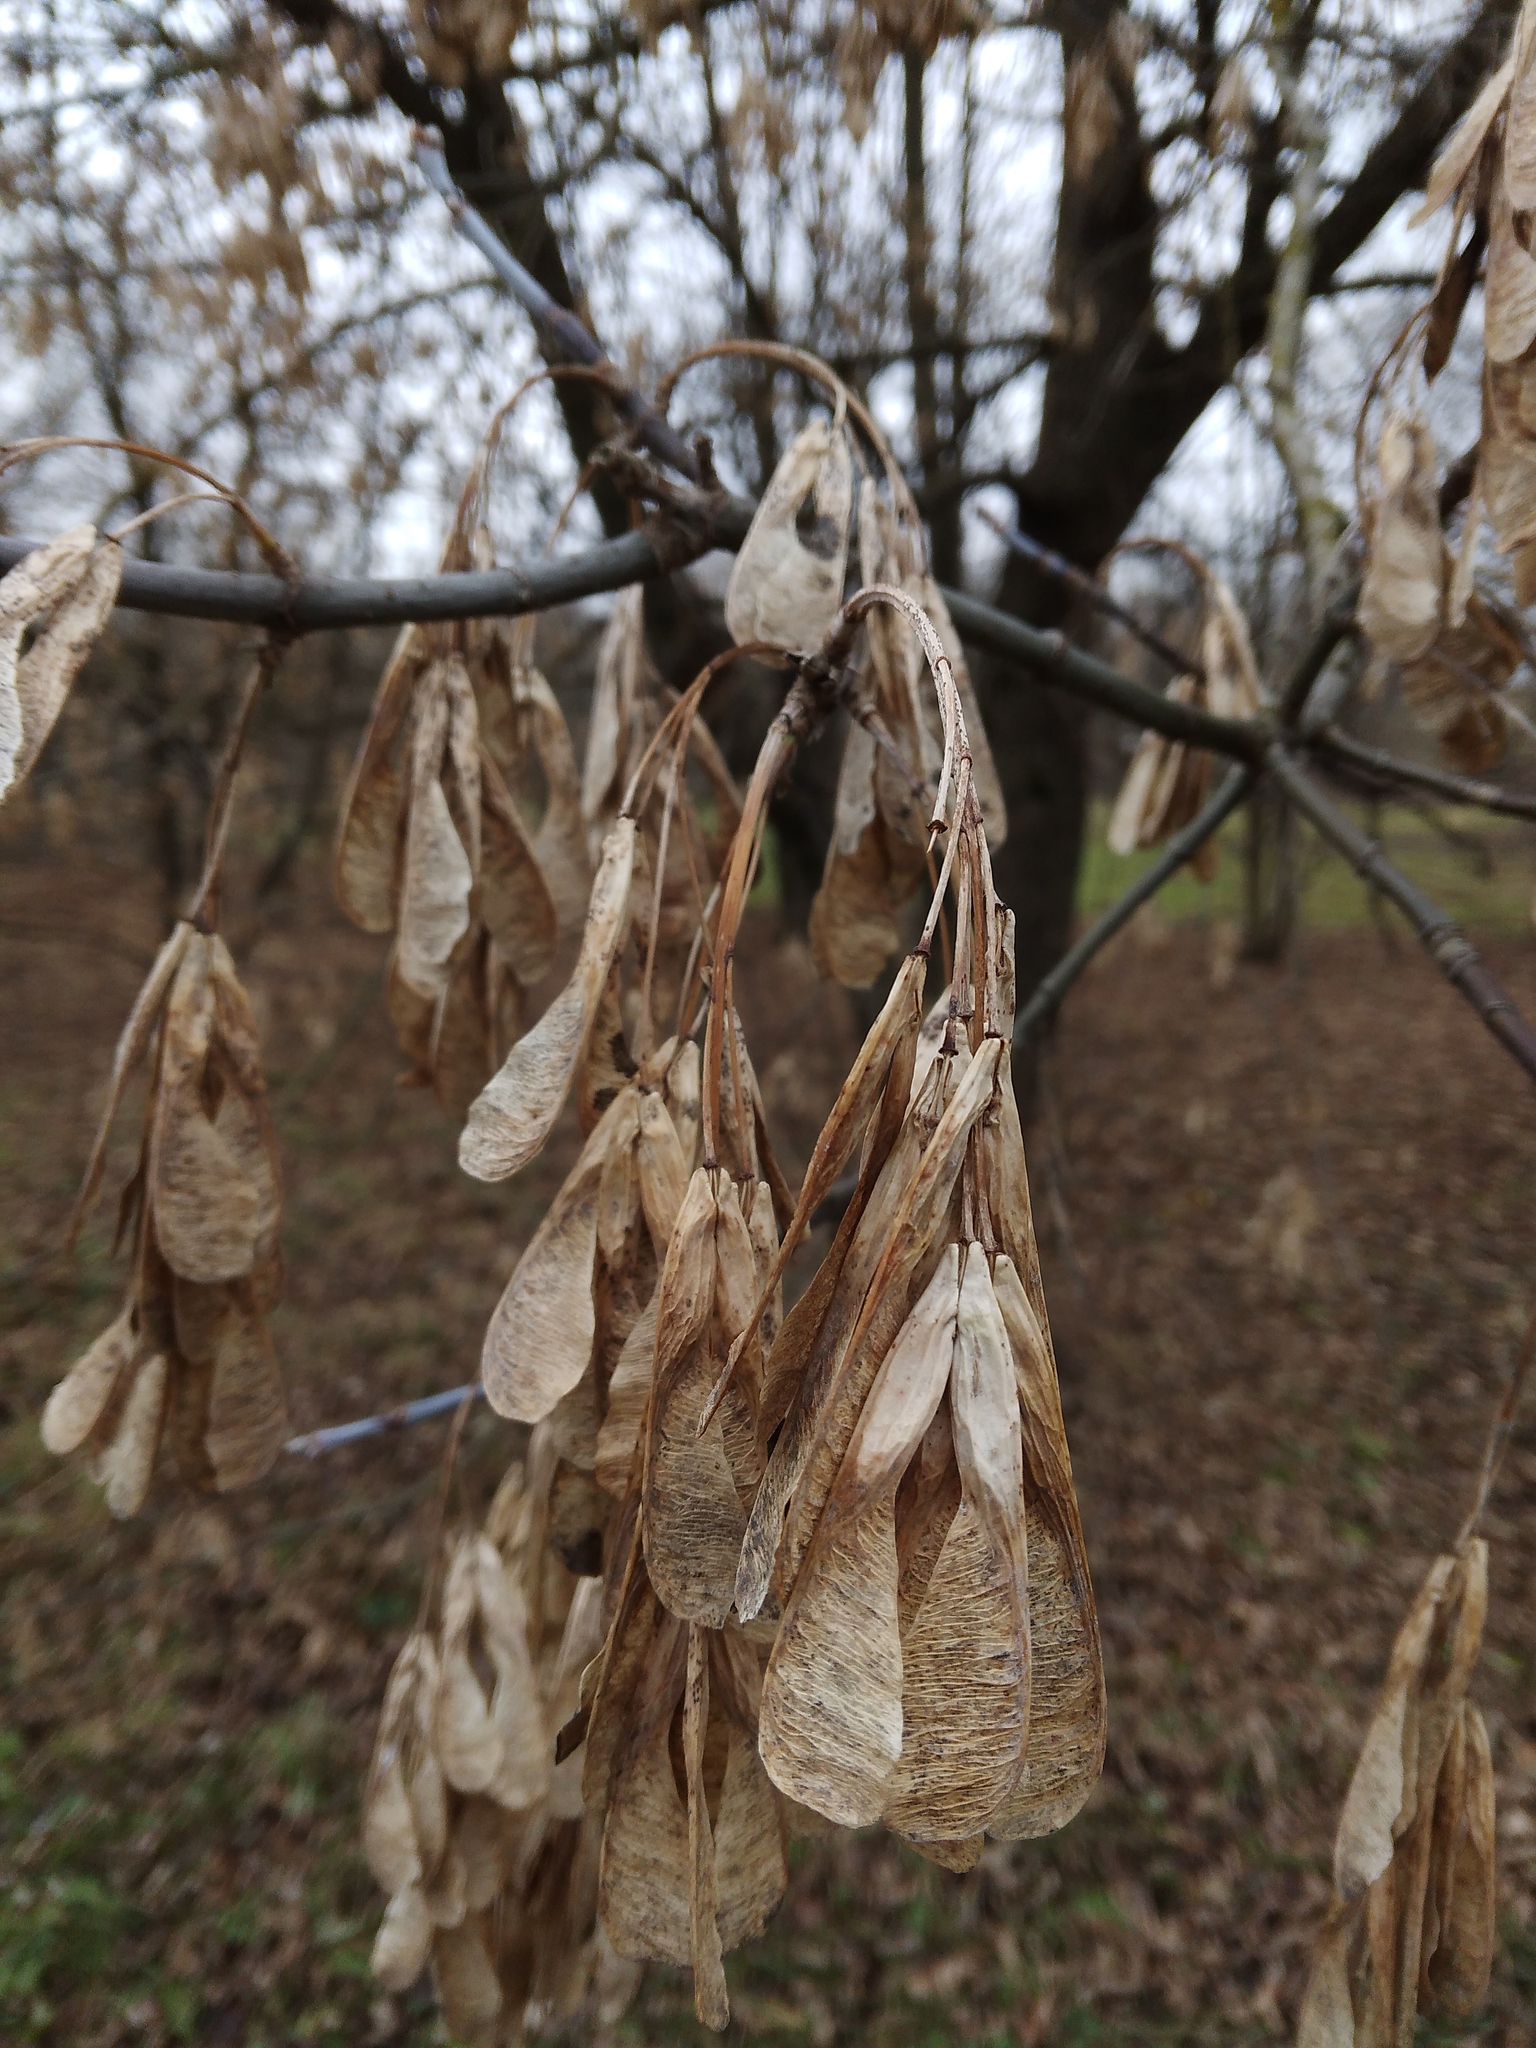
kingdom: Plantae
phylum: Tracheophyta
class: Magnoliopsida
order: Sapindales
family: Sapindaceae
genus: Acer
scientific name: Acer negundo
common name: Ashleaf maple
